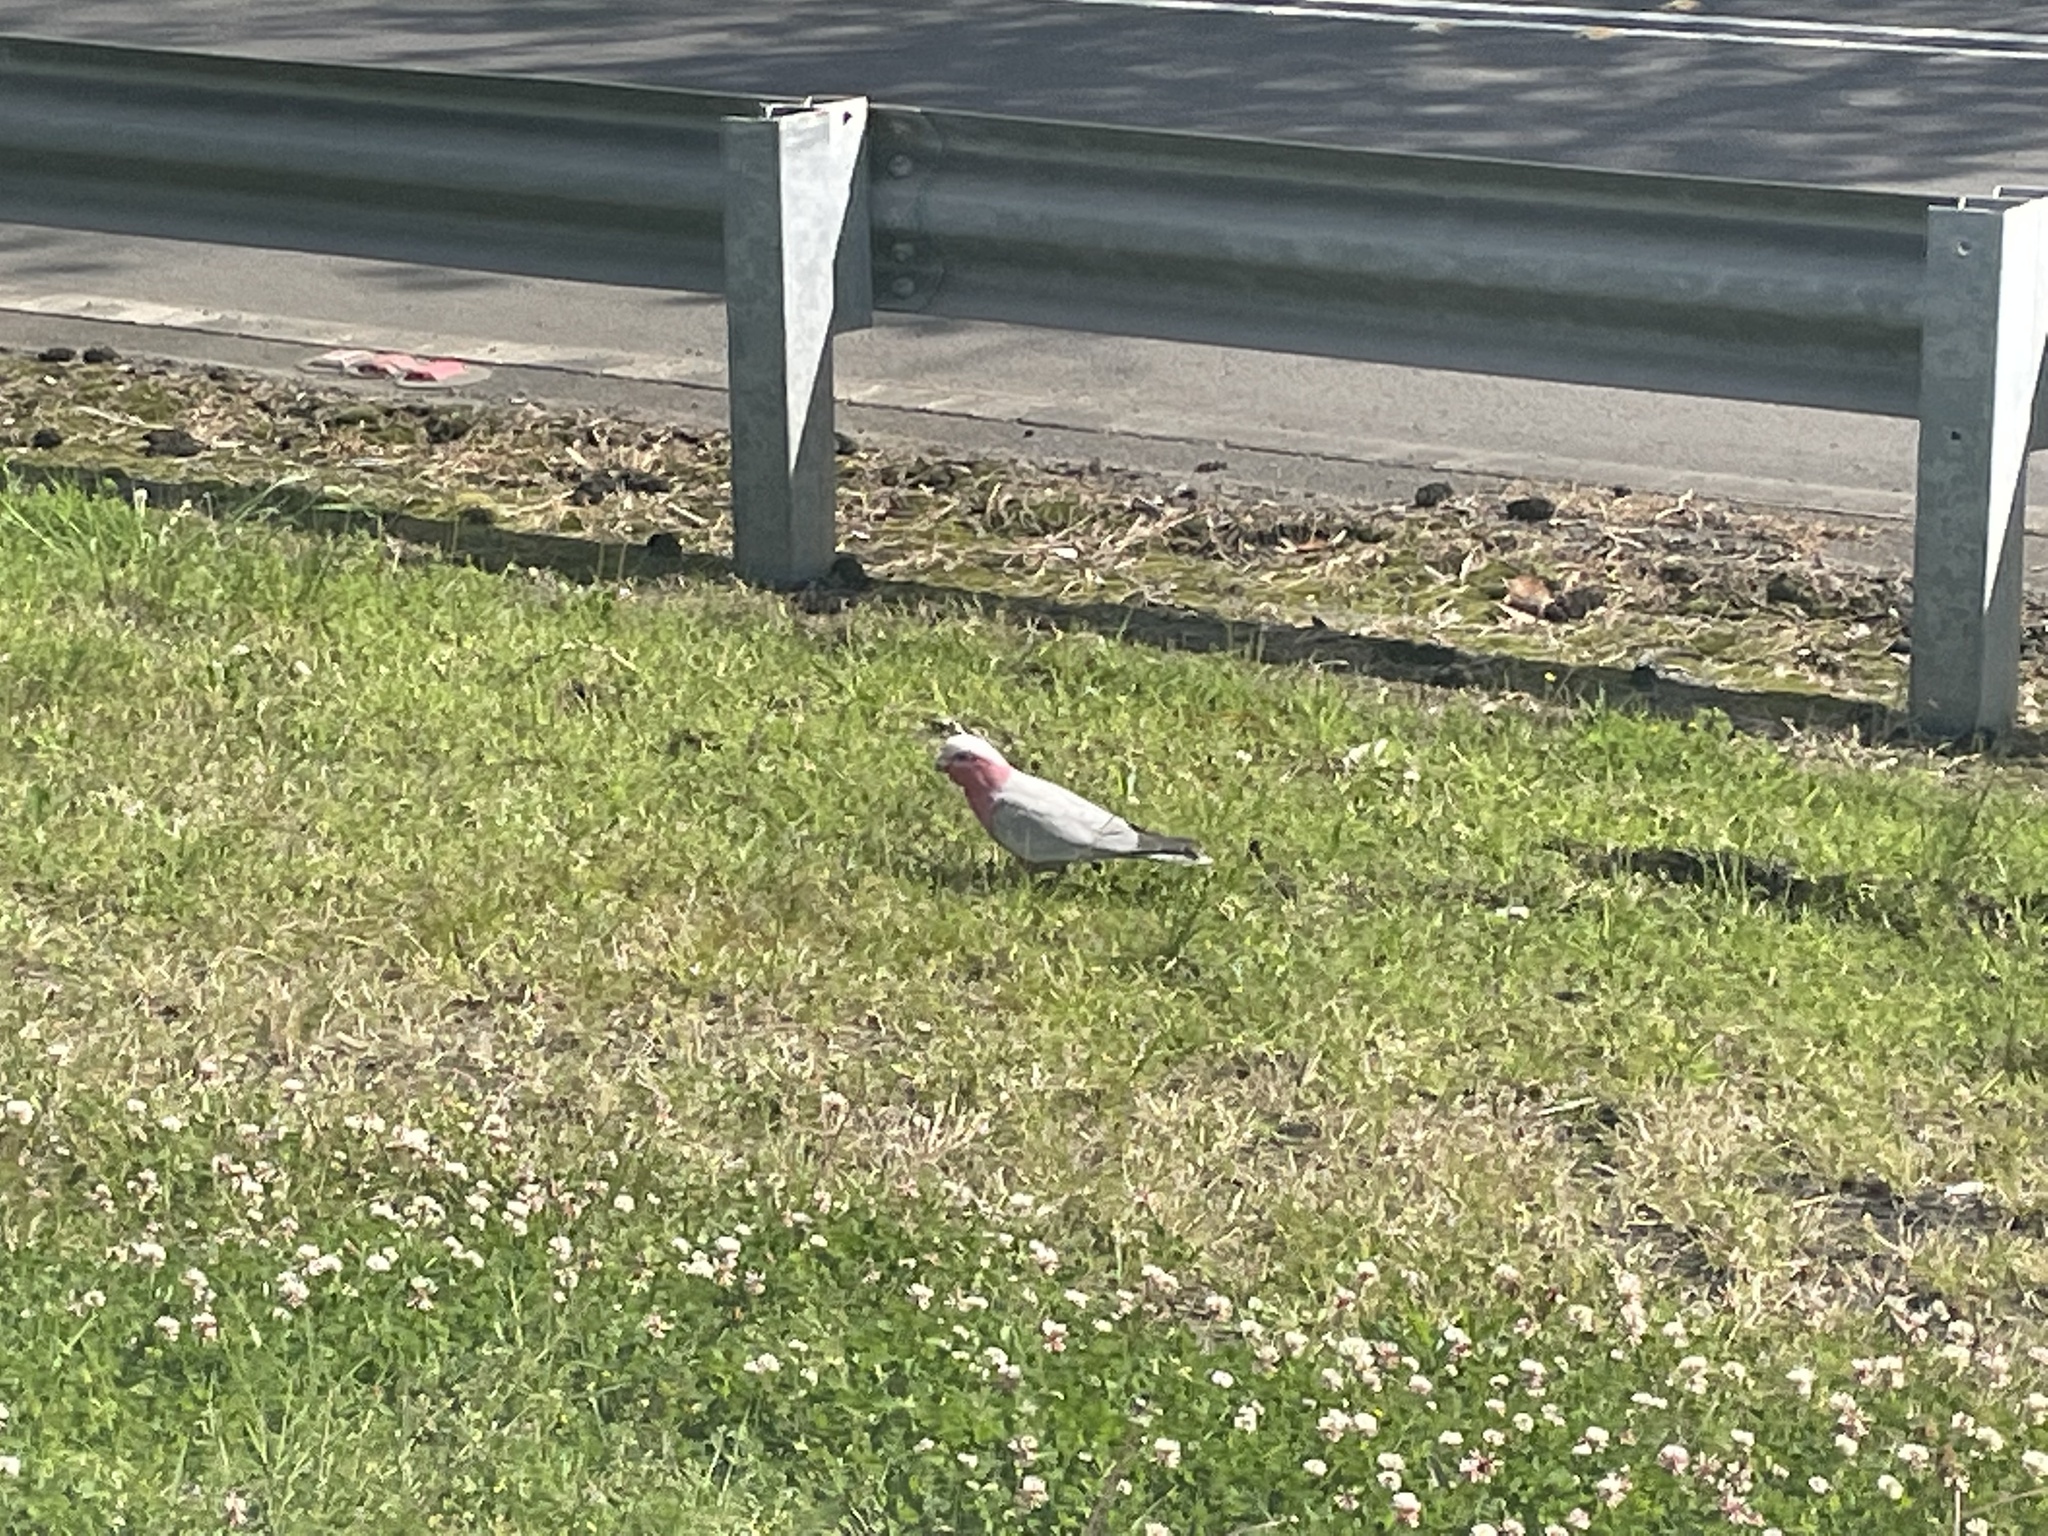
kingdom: Animalia
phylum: Chordata
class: Aves
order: Psittaciformes
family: Psittacidae
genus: Eolophus
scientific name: Eolophus roseicapilla
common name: Galah
